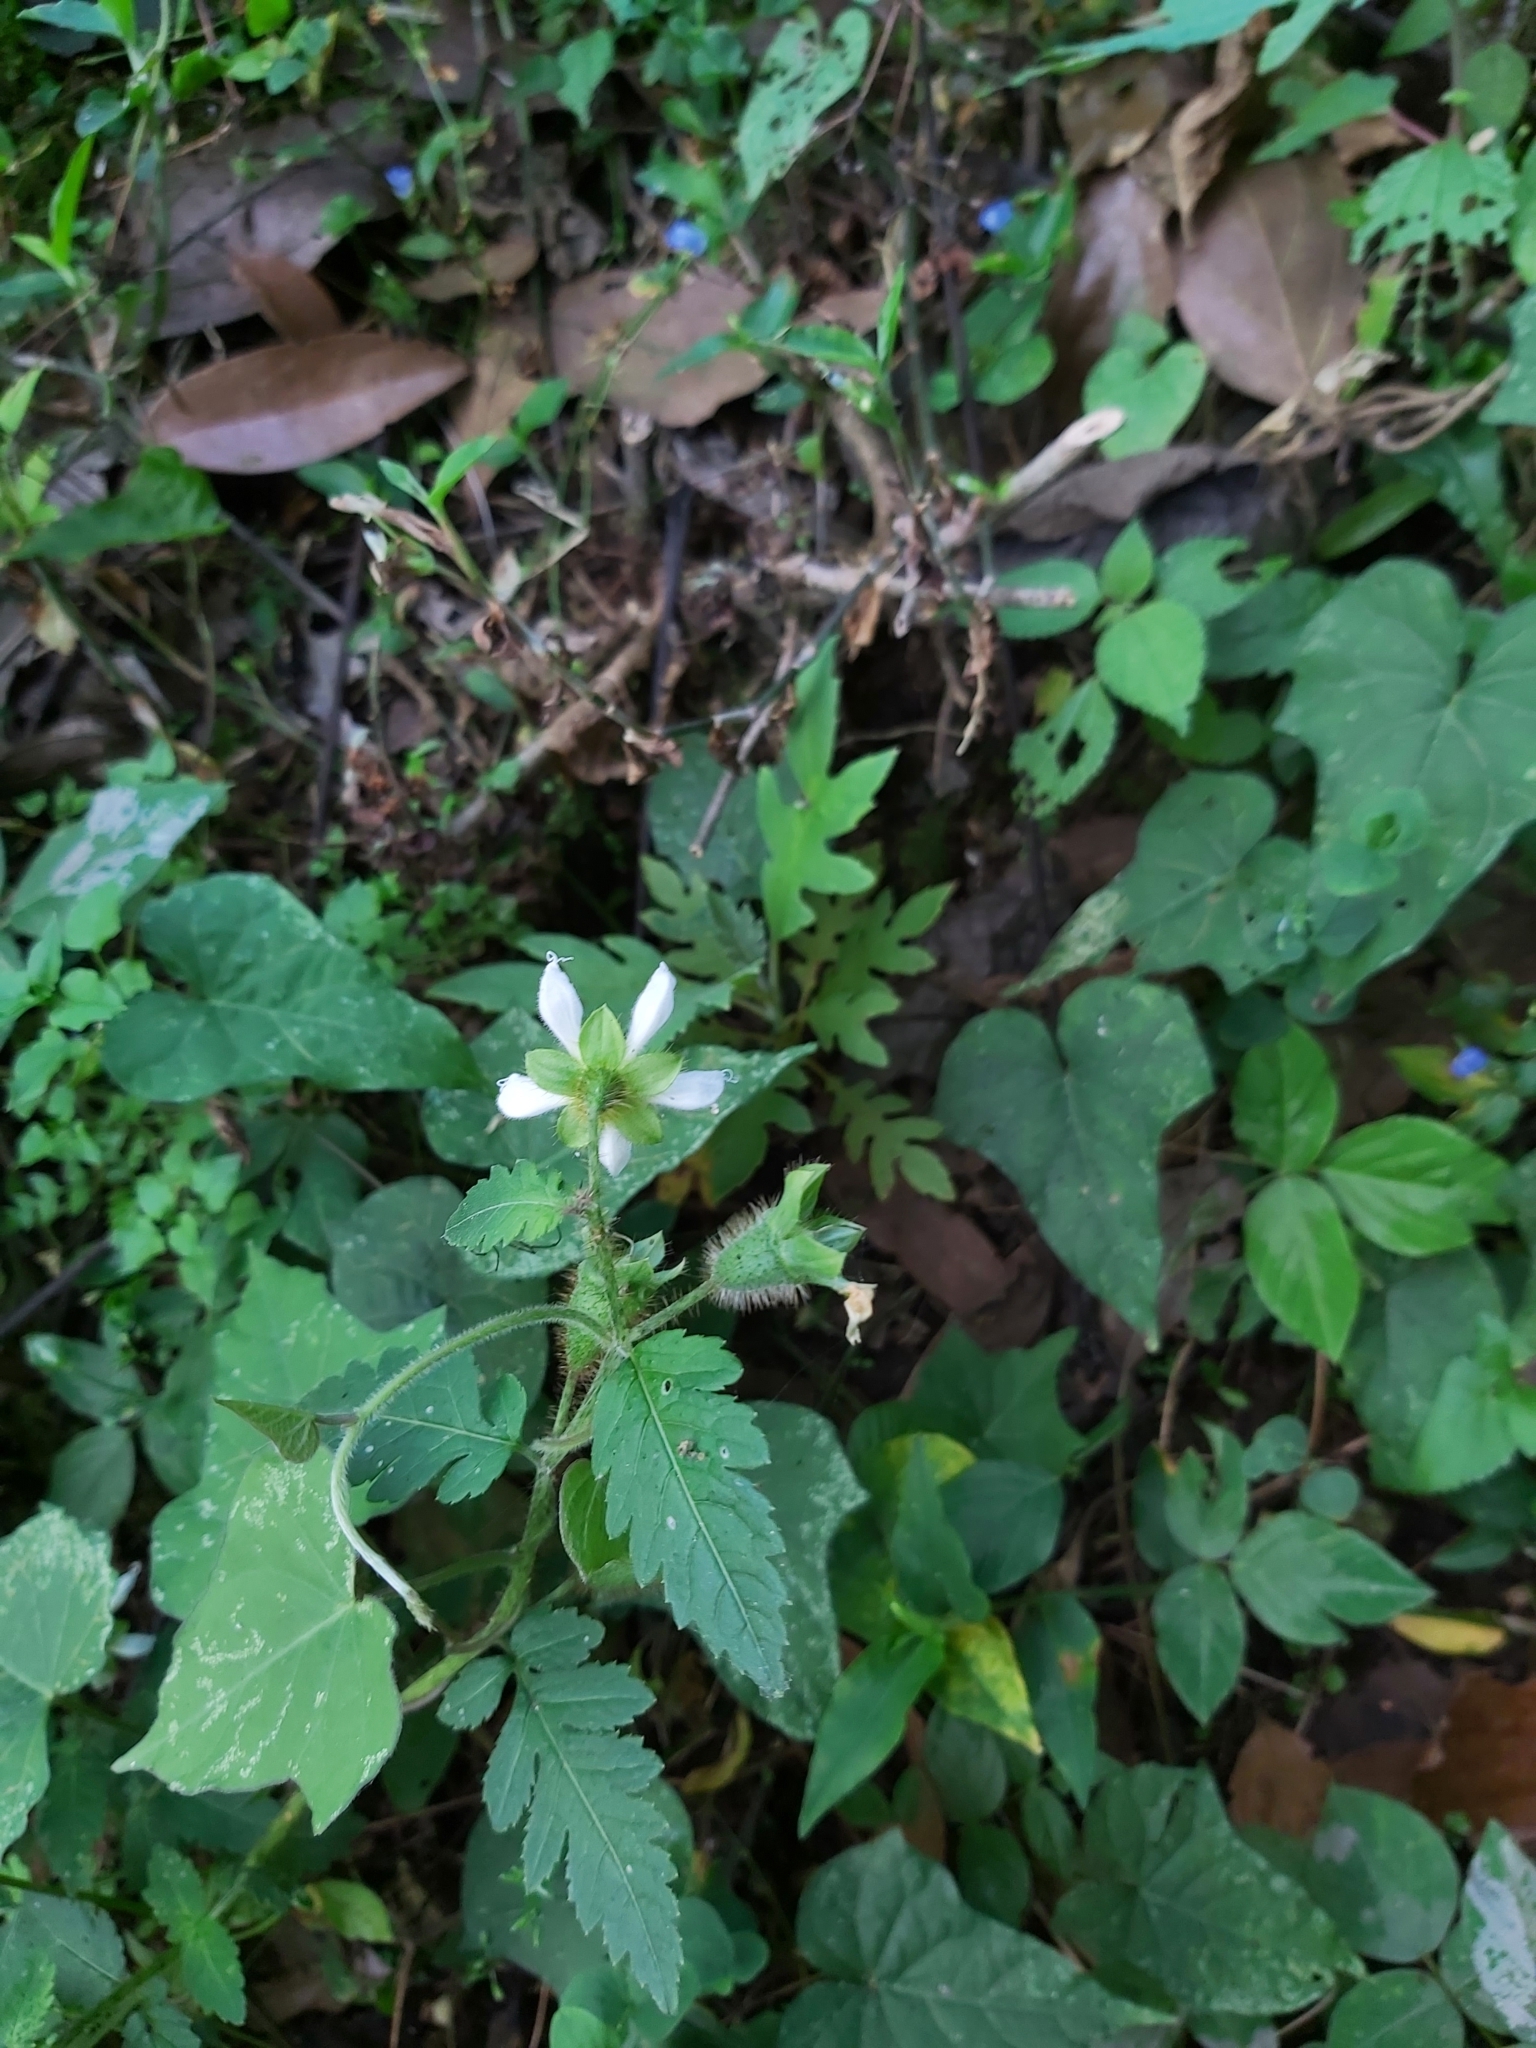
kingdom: Plantae
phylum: Tracheophyta
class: Magnoliopsida
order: Cornales
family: Loasaceae
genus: Nasa
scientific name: Nasa triphylla
